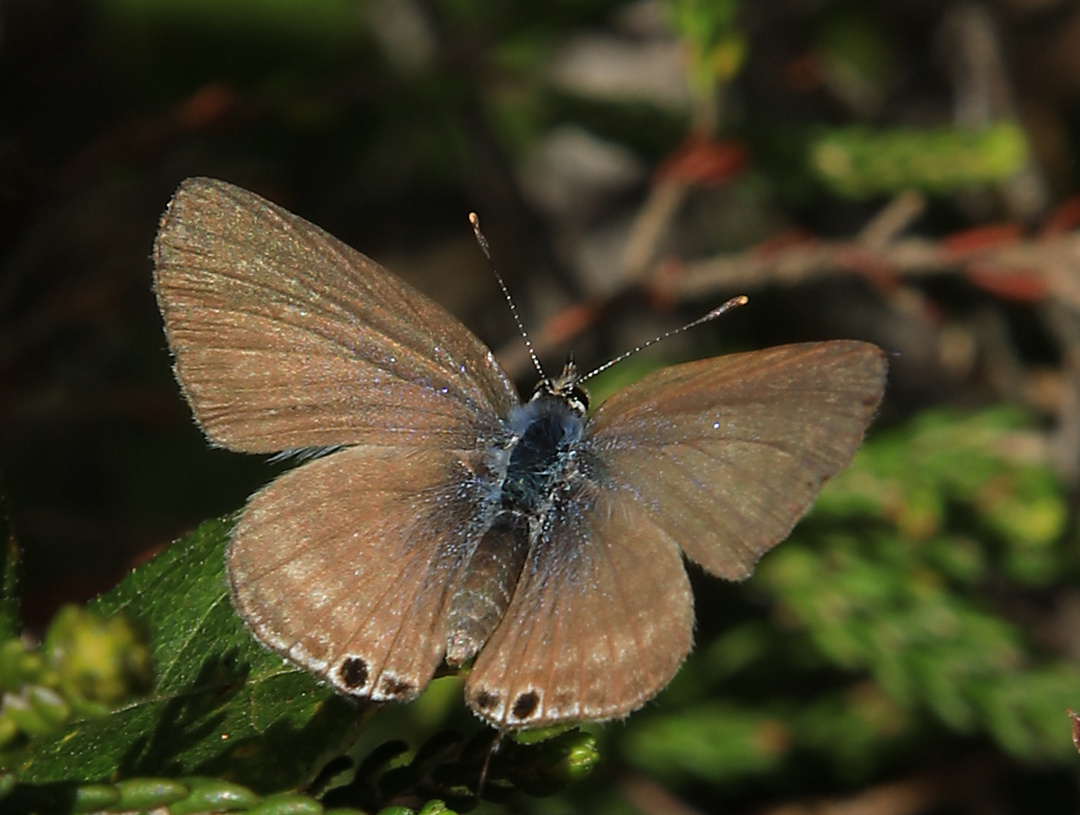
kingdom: Animalia
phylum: Arthropoda
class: Insecta
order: Lepidoptera
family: Lycaenidae
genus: Lampides
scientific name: Lampides boeticus
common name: Long-tailed blue
